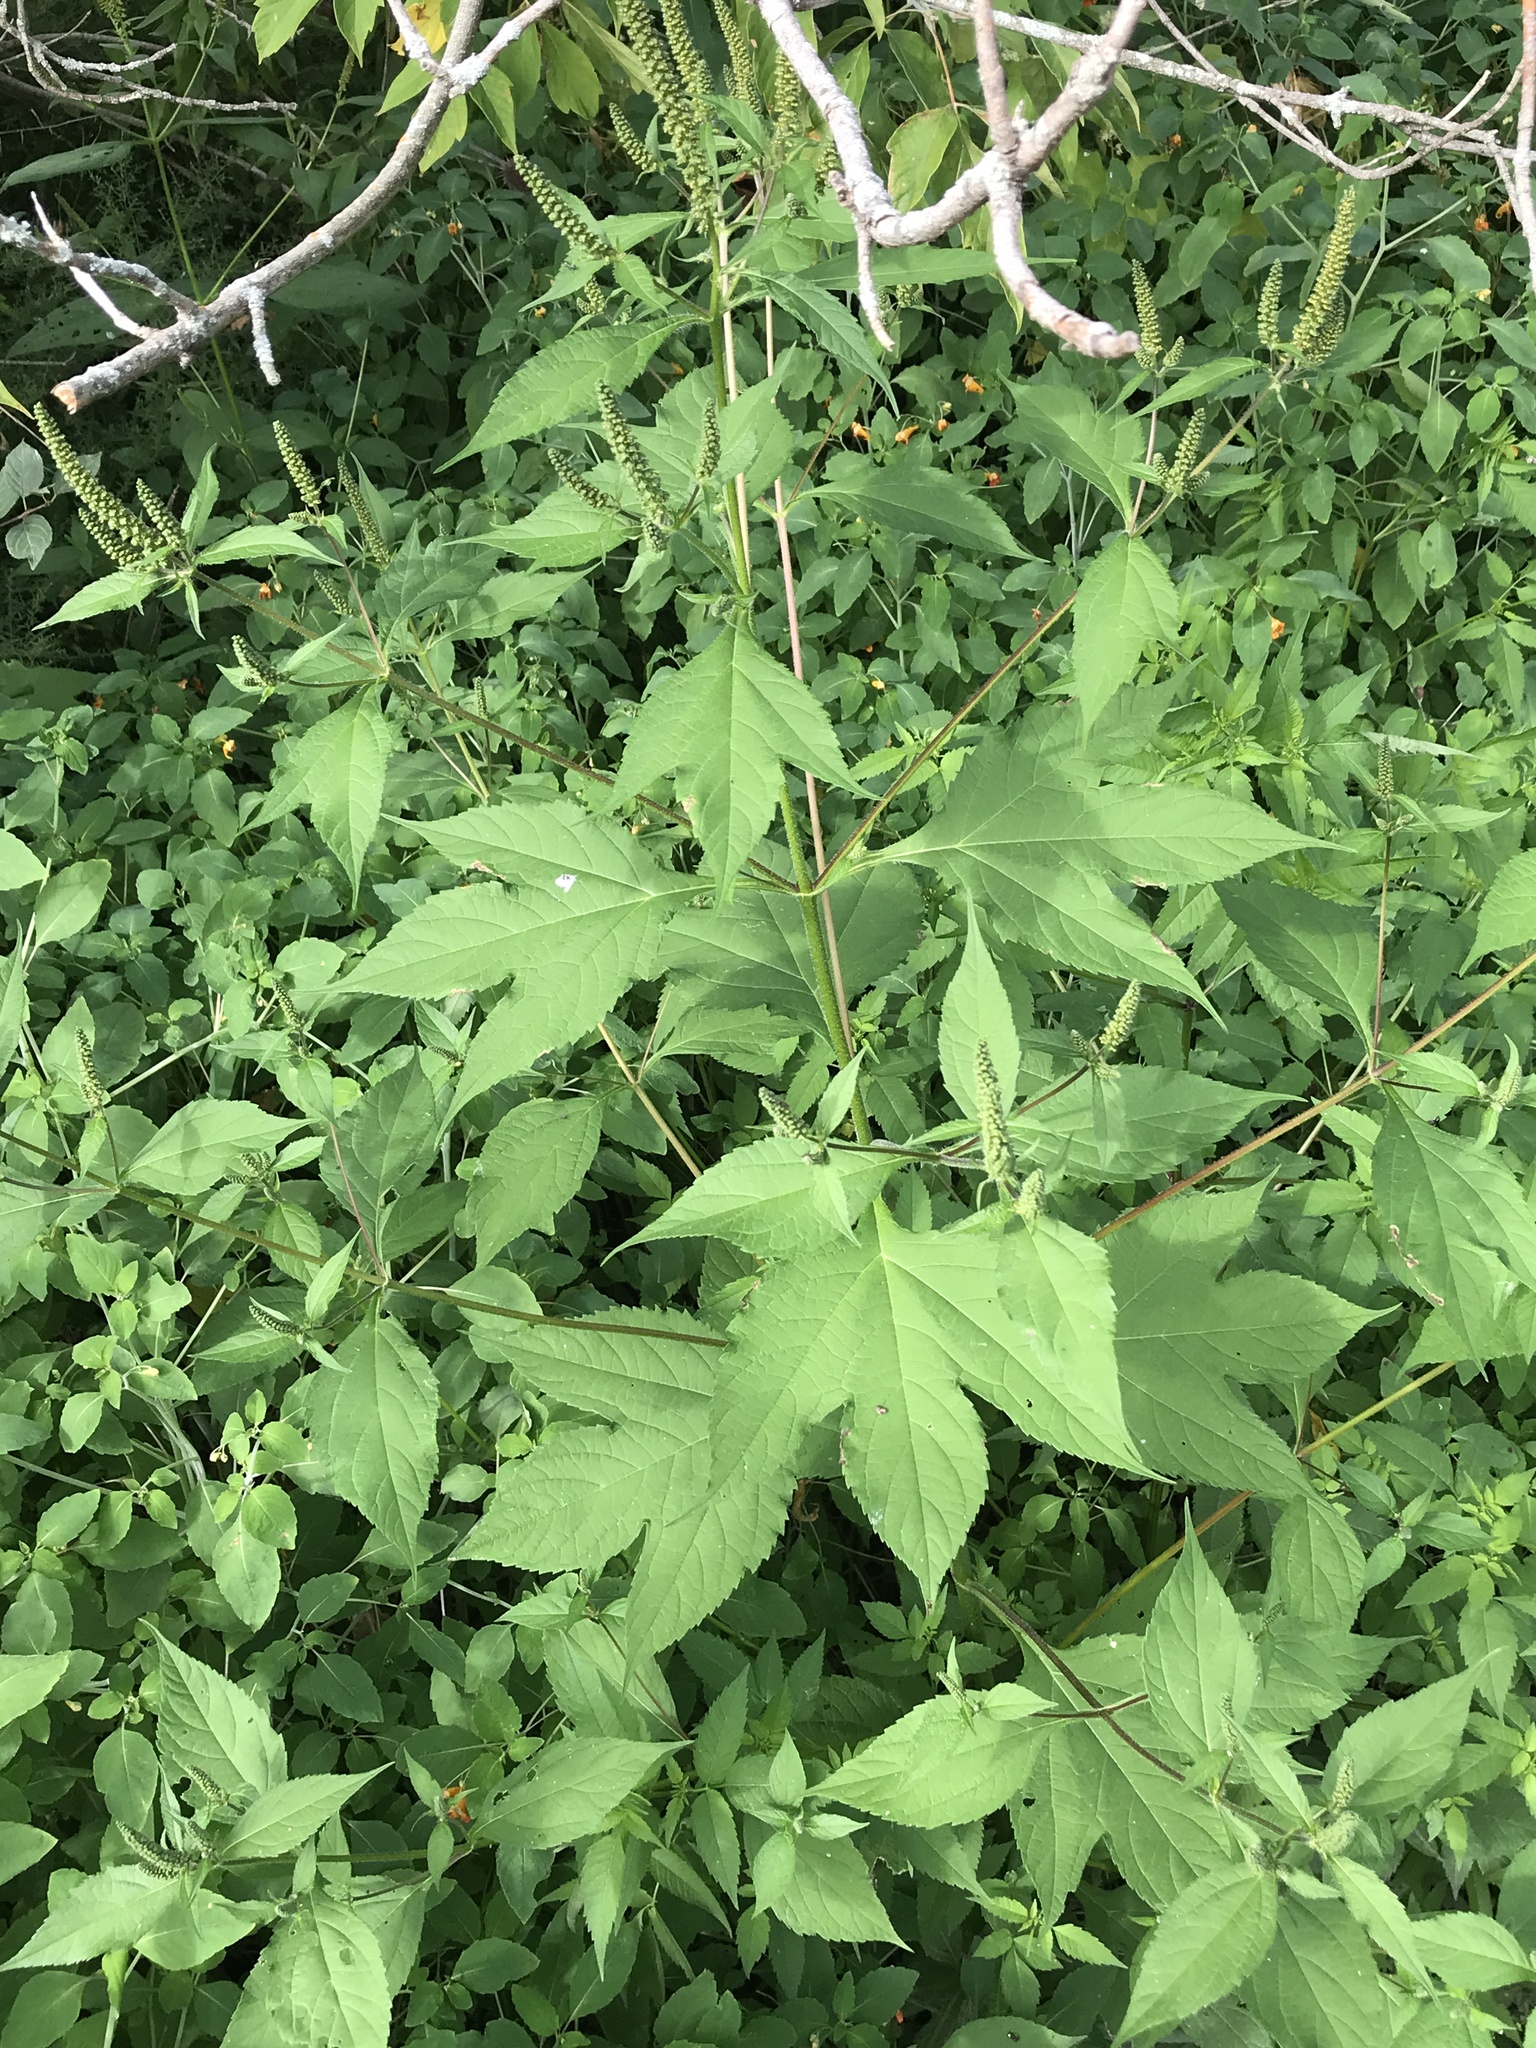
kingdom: Plantae
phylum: Tracheophyta
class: Magnoliopsida
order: Asterales
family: Asteraceae
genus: Ambrosia
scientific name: Ambrosia trifida
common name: Giant ragweed
